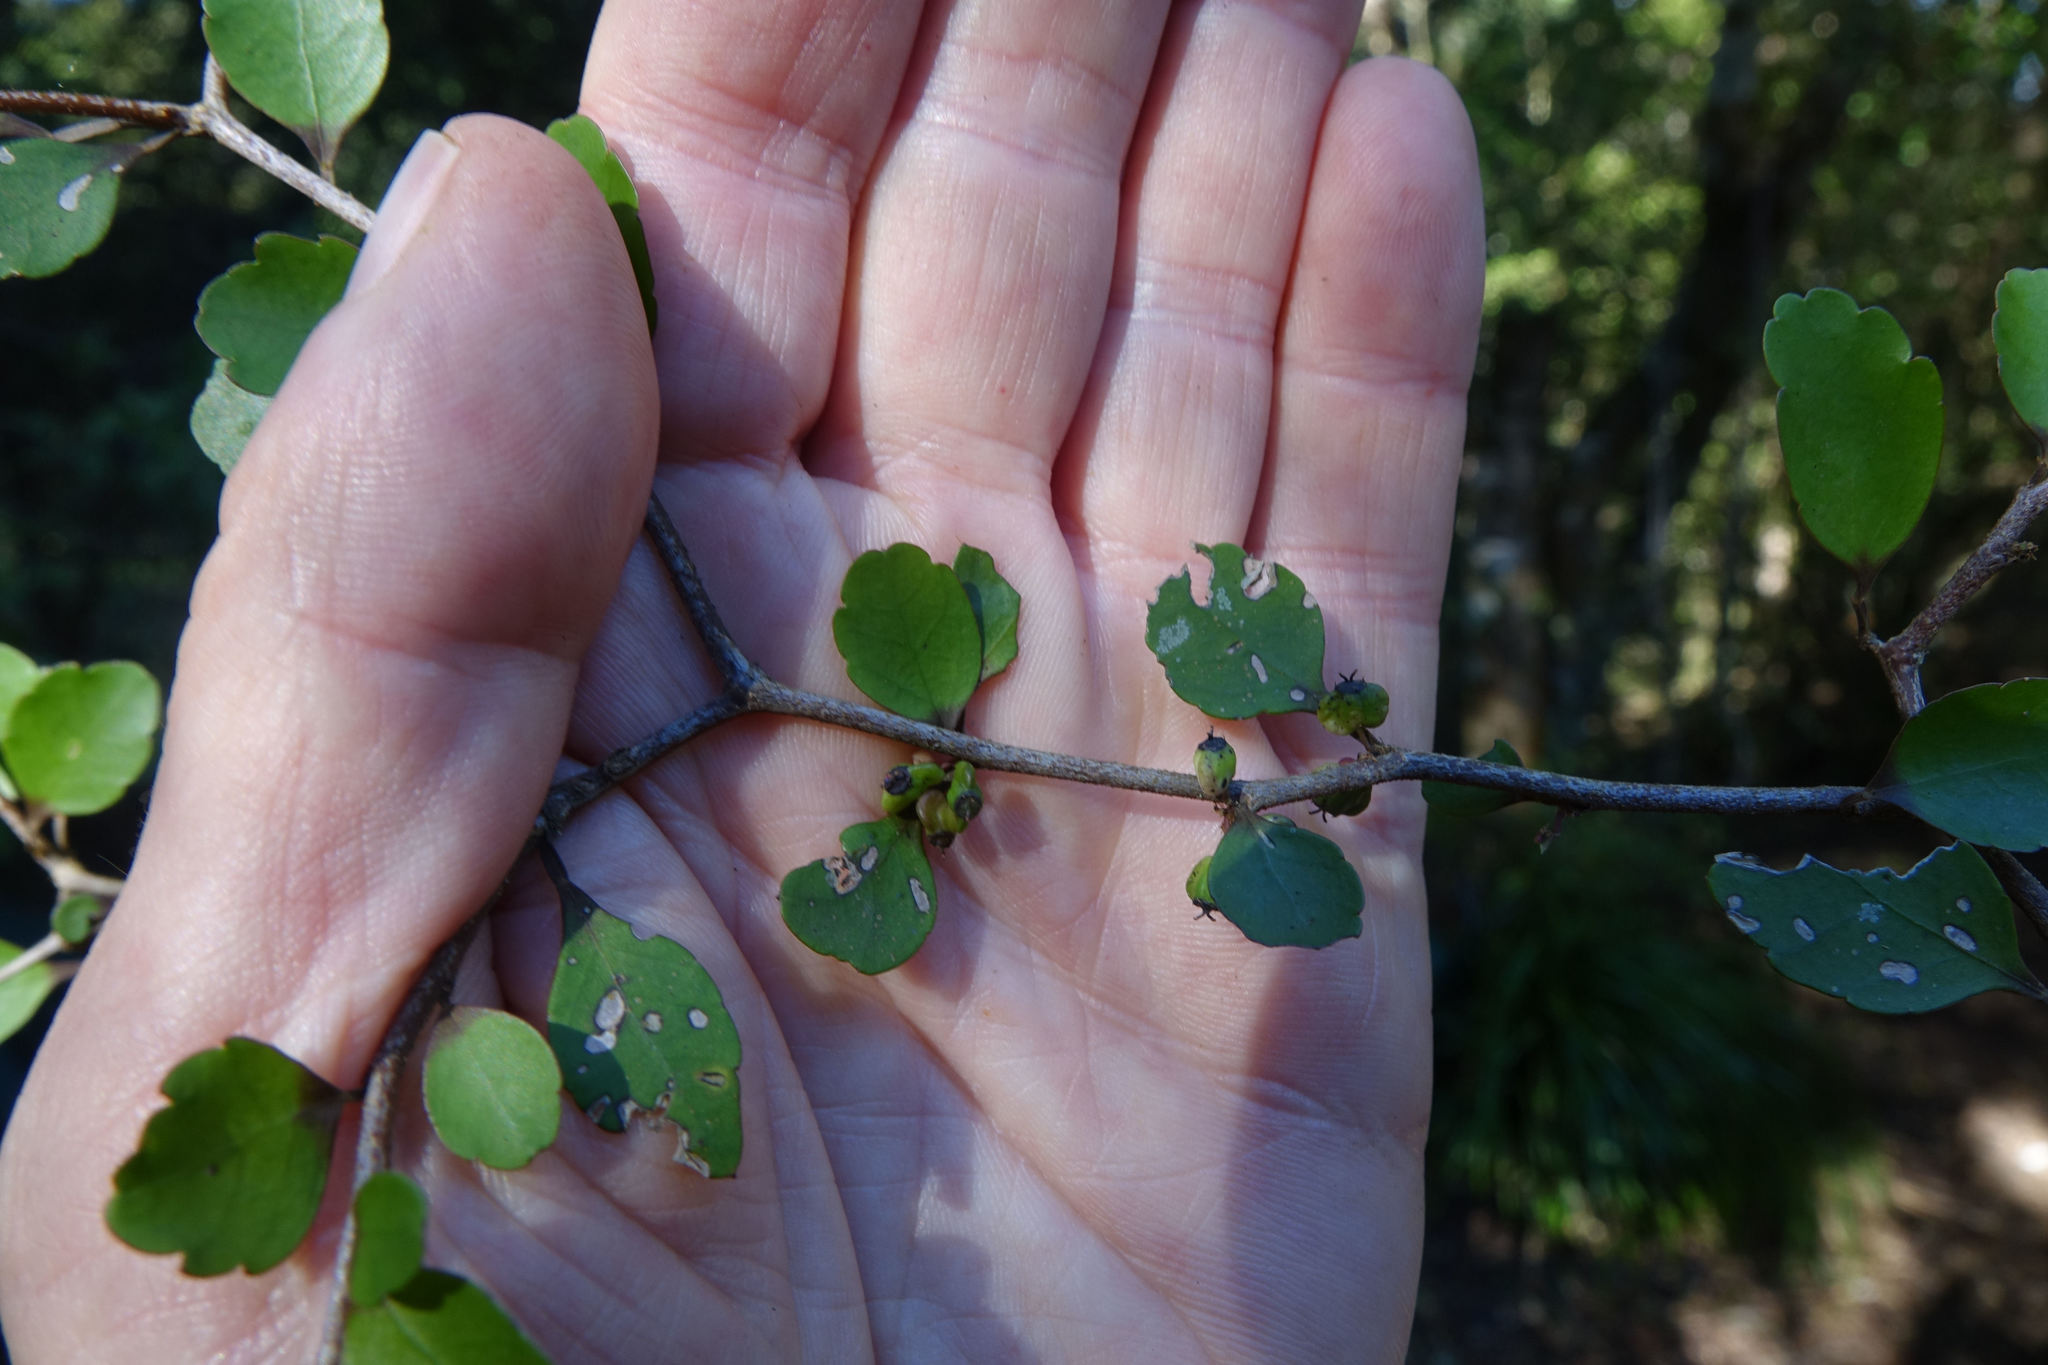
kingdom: Plantae
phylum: Tracheophyta
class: Magnoliopsida
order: Apiales
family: Araliaceae
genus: Raukaua
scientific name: Raukaua anomalus
